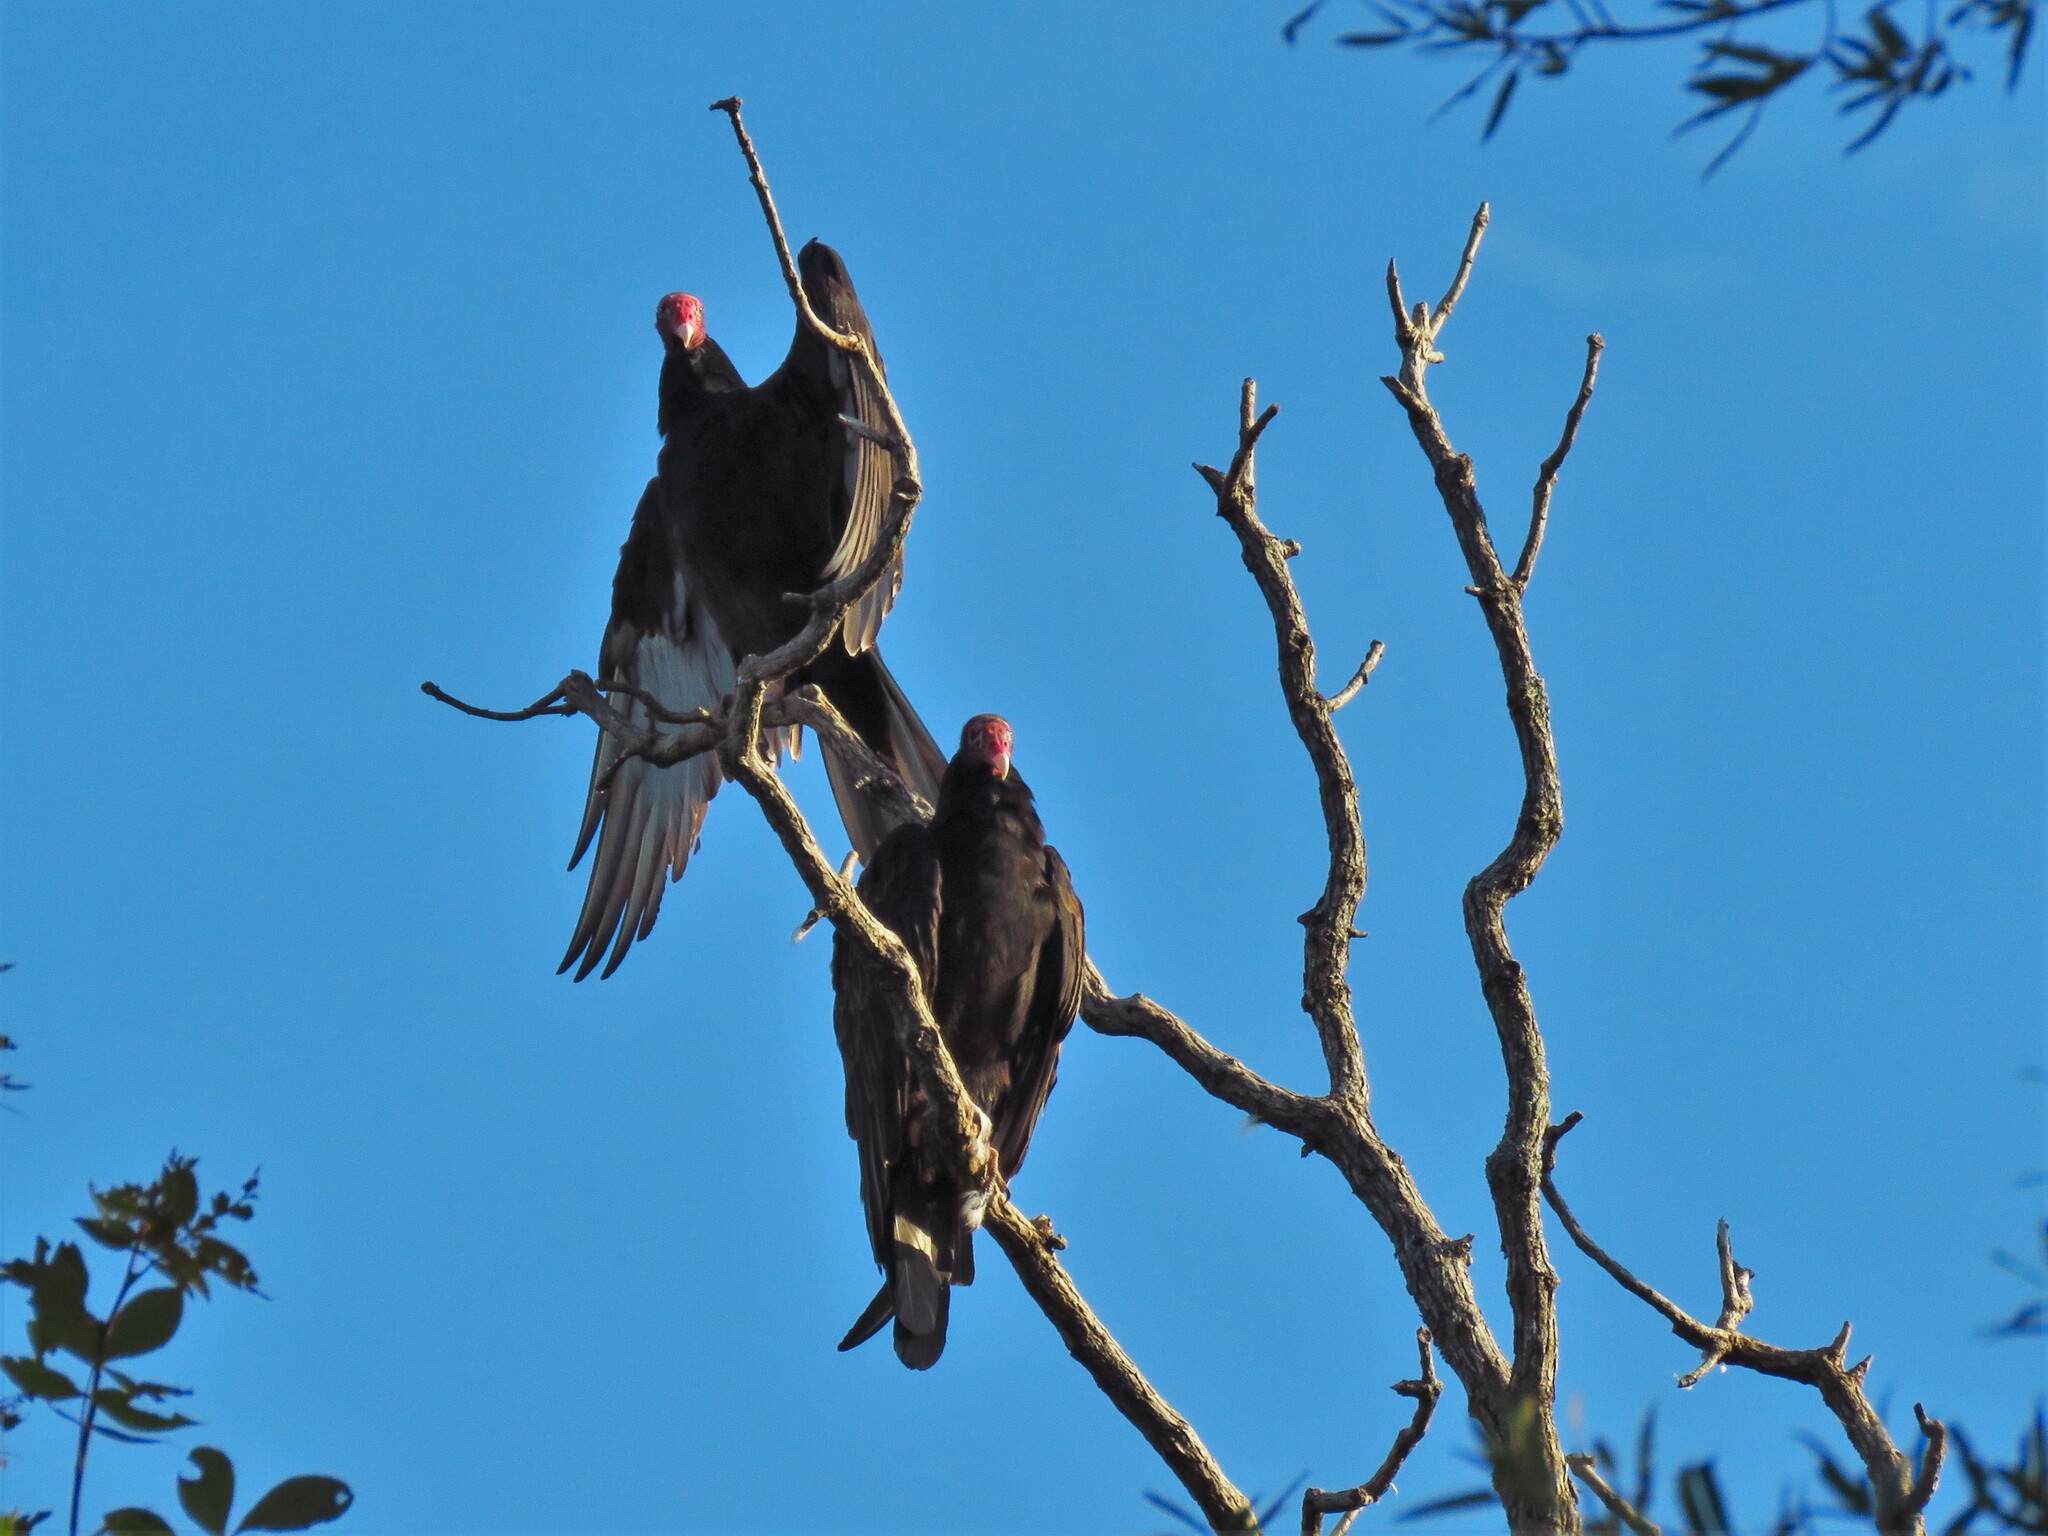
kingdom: Animalia
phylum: Chordata
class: Aves
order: Accipitriformes
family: Cathartidae
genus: Cathartes
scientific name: Cathartes aura
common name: Turkey vulture
